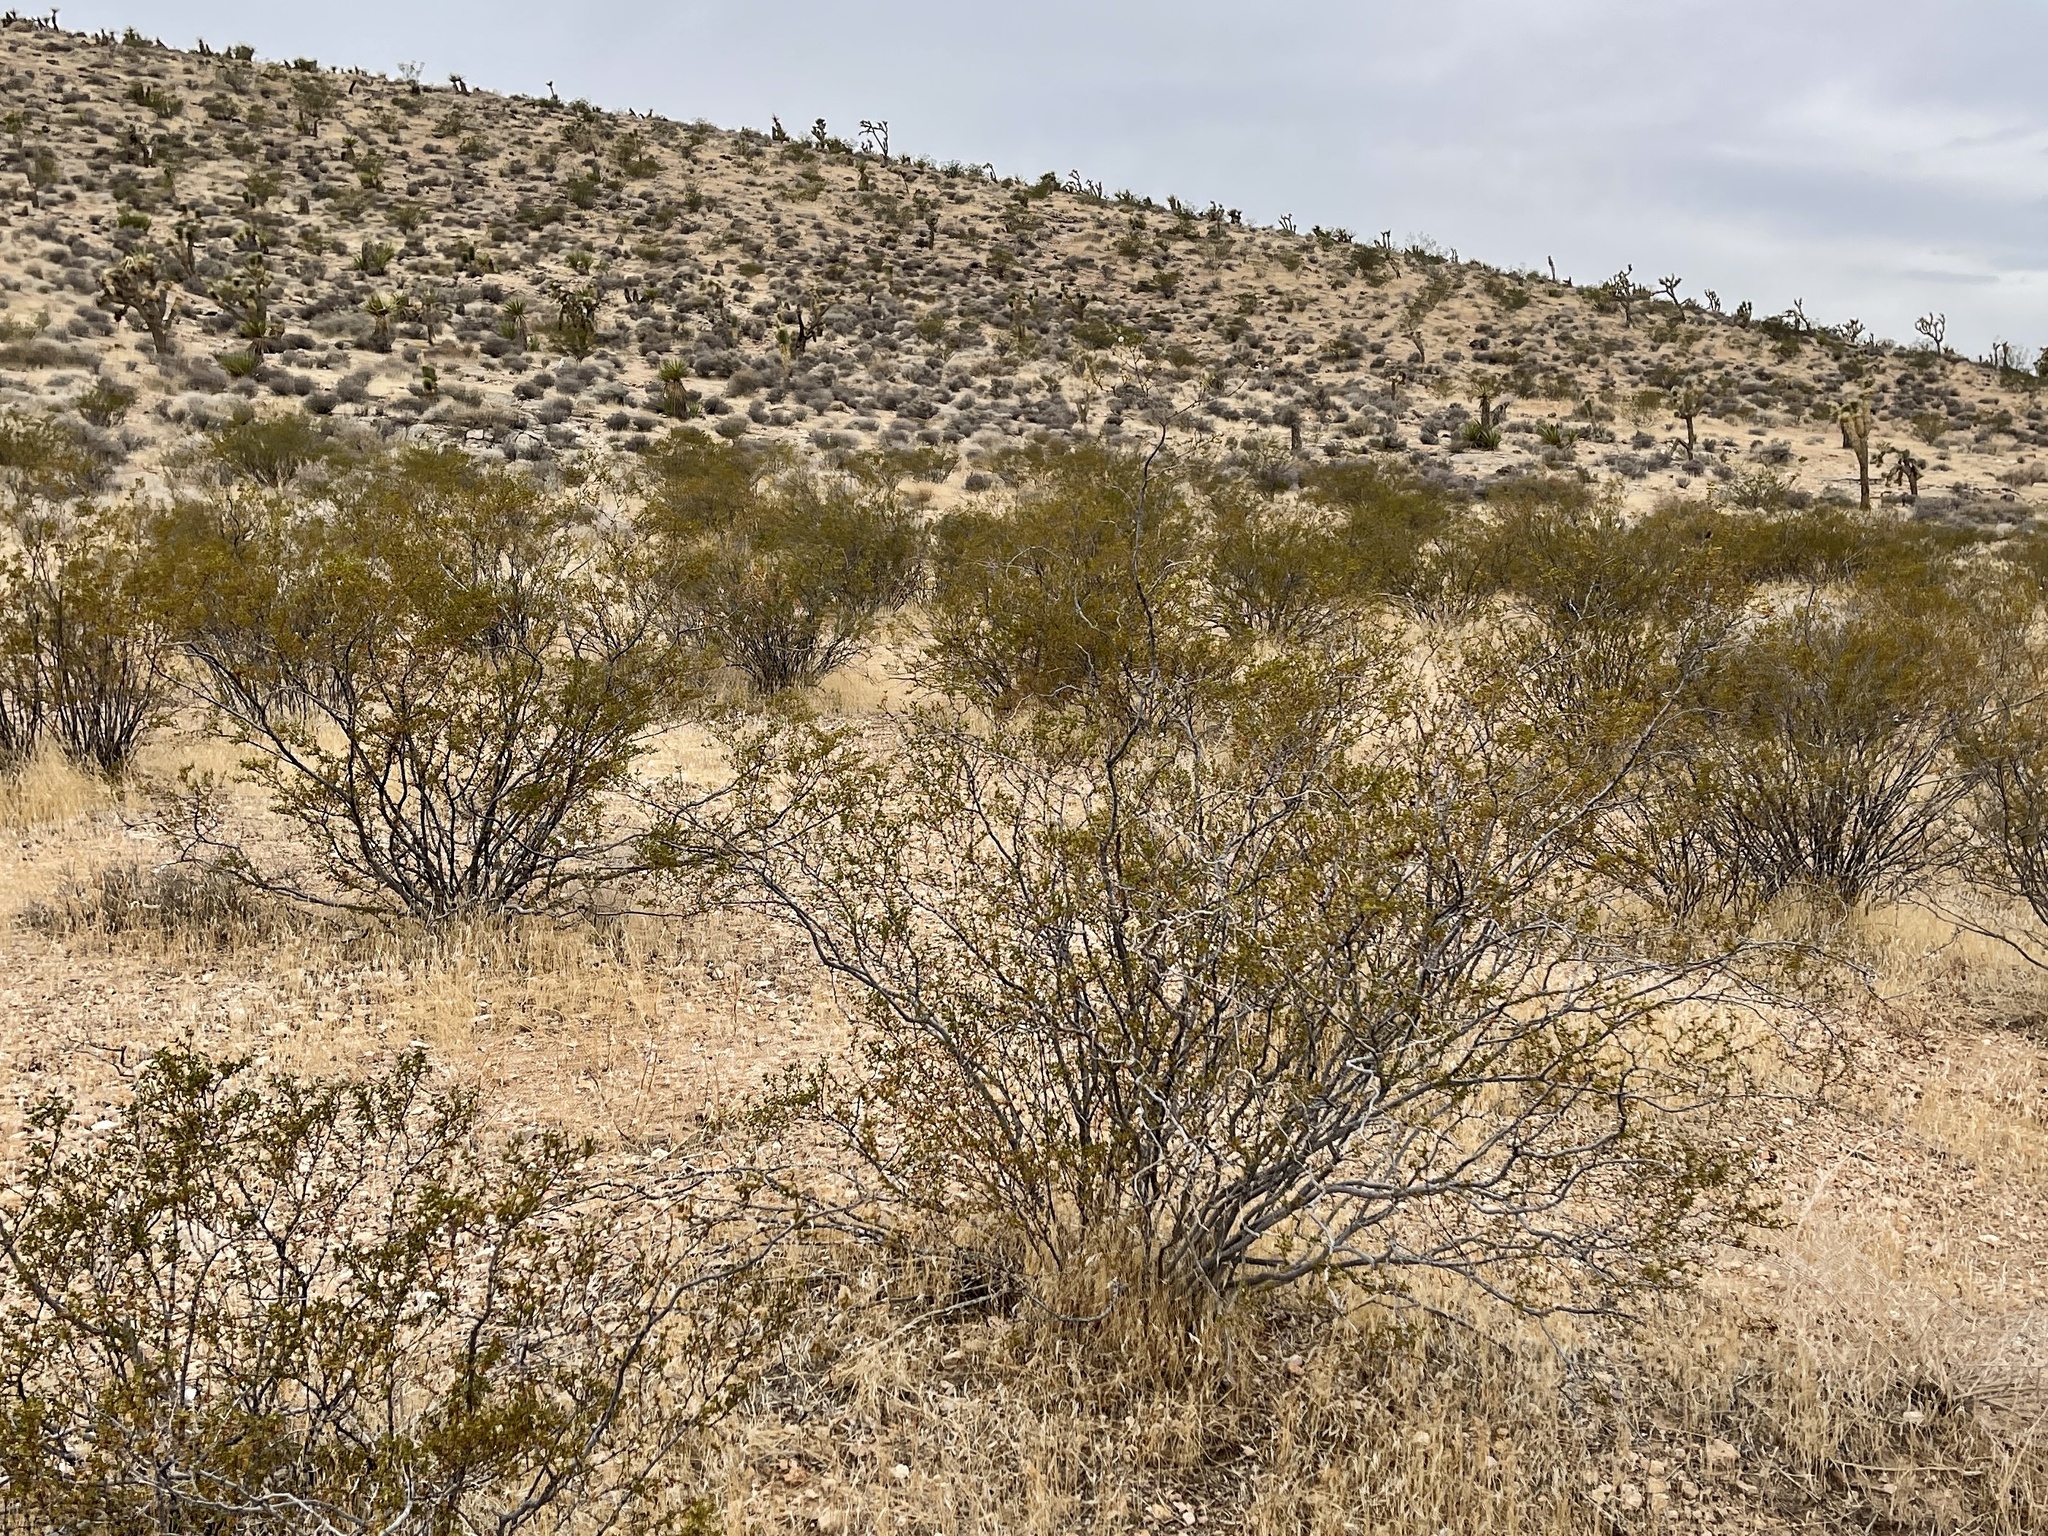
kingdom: Plantae
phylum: Tracheophyta
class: Magnoliopsida
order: Zygophyllales
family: Zygophyllaceae
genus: Larrea
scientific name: Larrea tridentata
